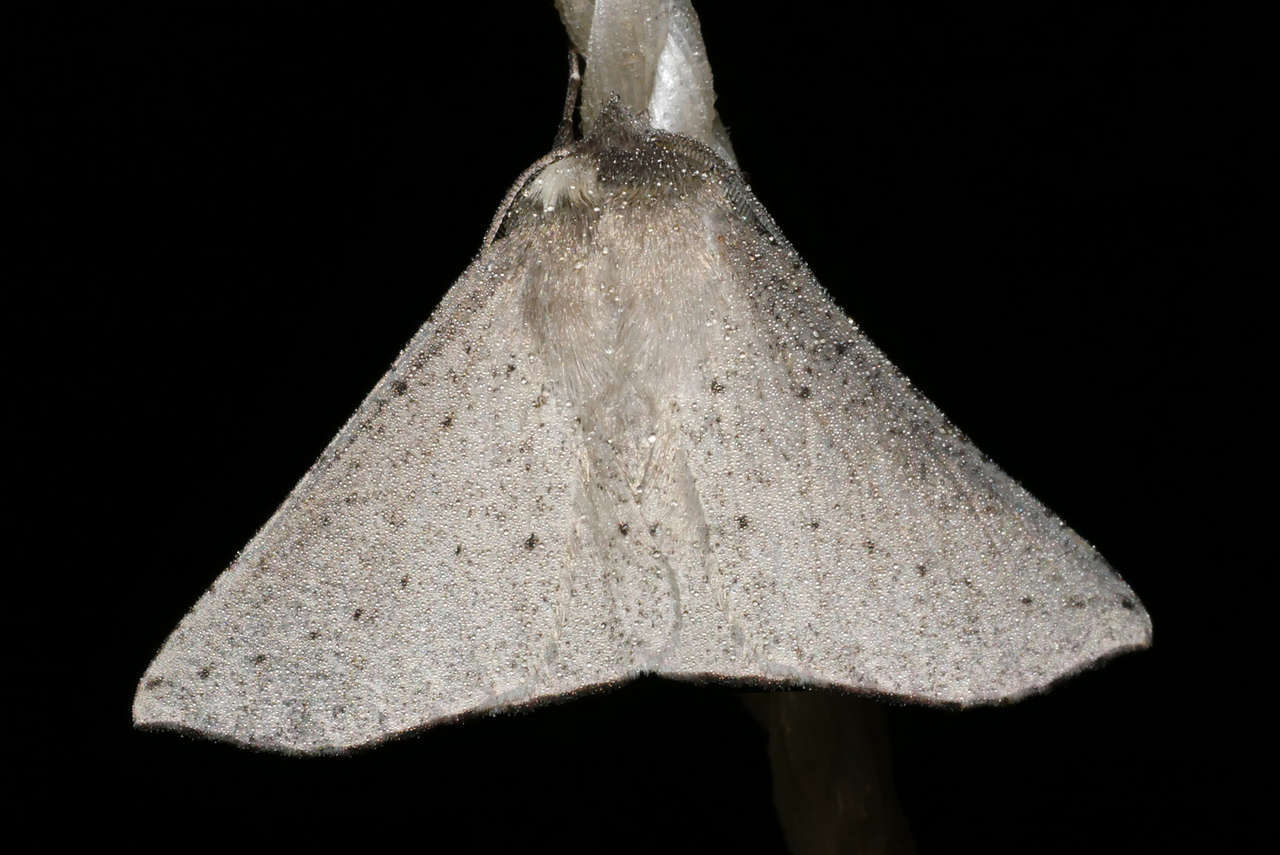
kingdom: Animalia
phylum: Arthropoda
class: Insecta
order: Lepidoptera
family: Geometridae
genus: Oenochroma
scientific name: Oenochroma subustaria
